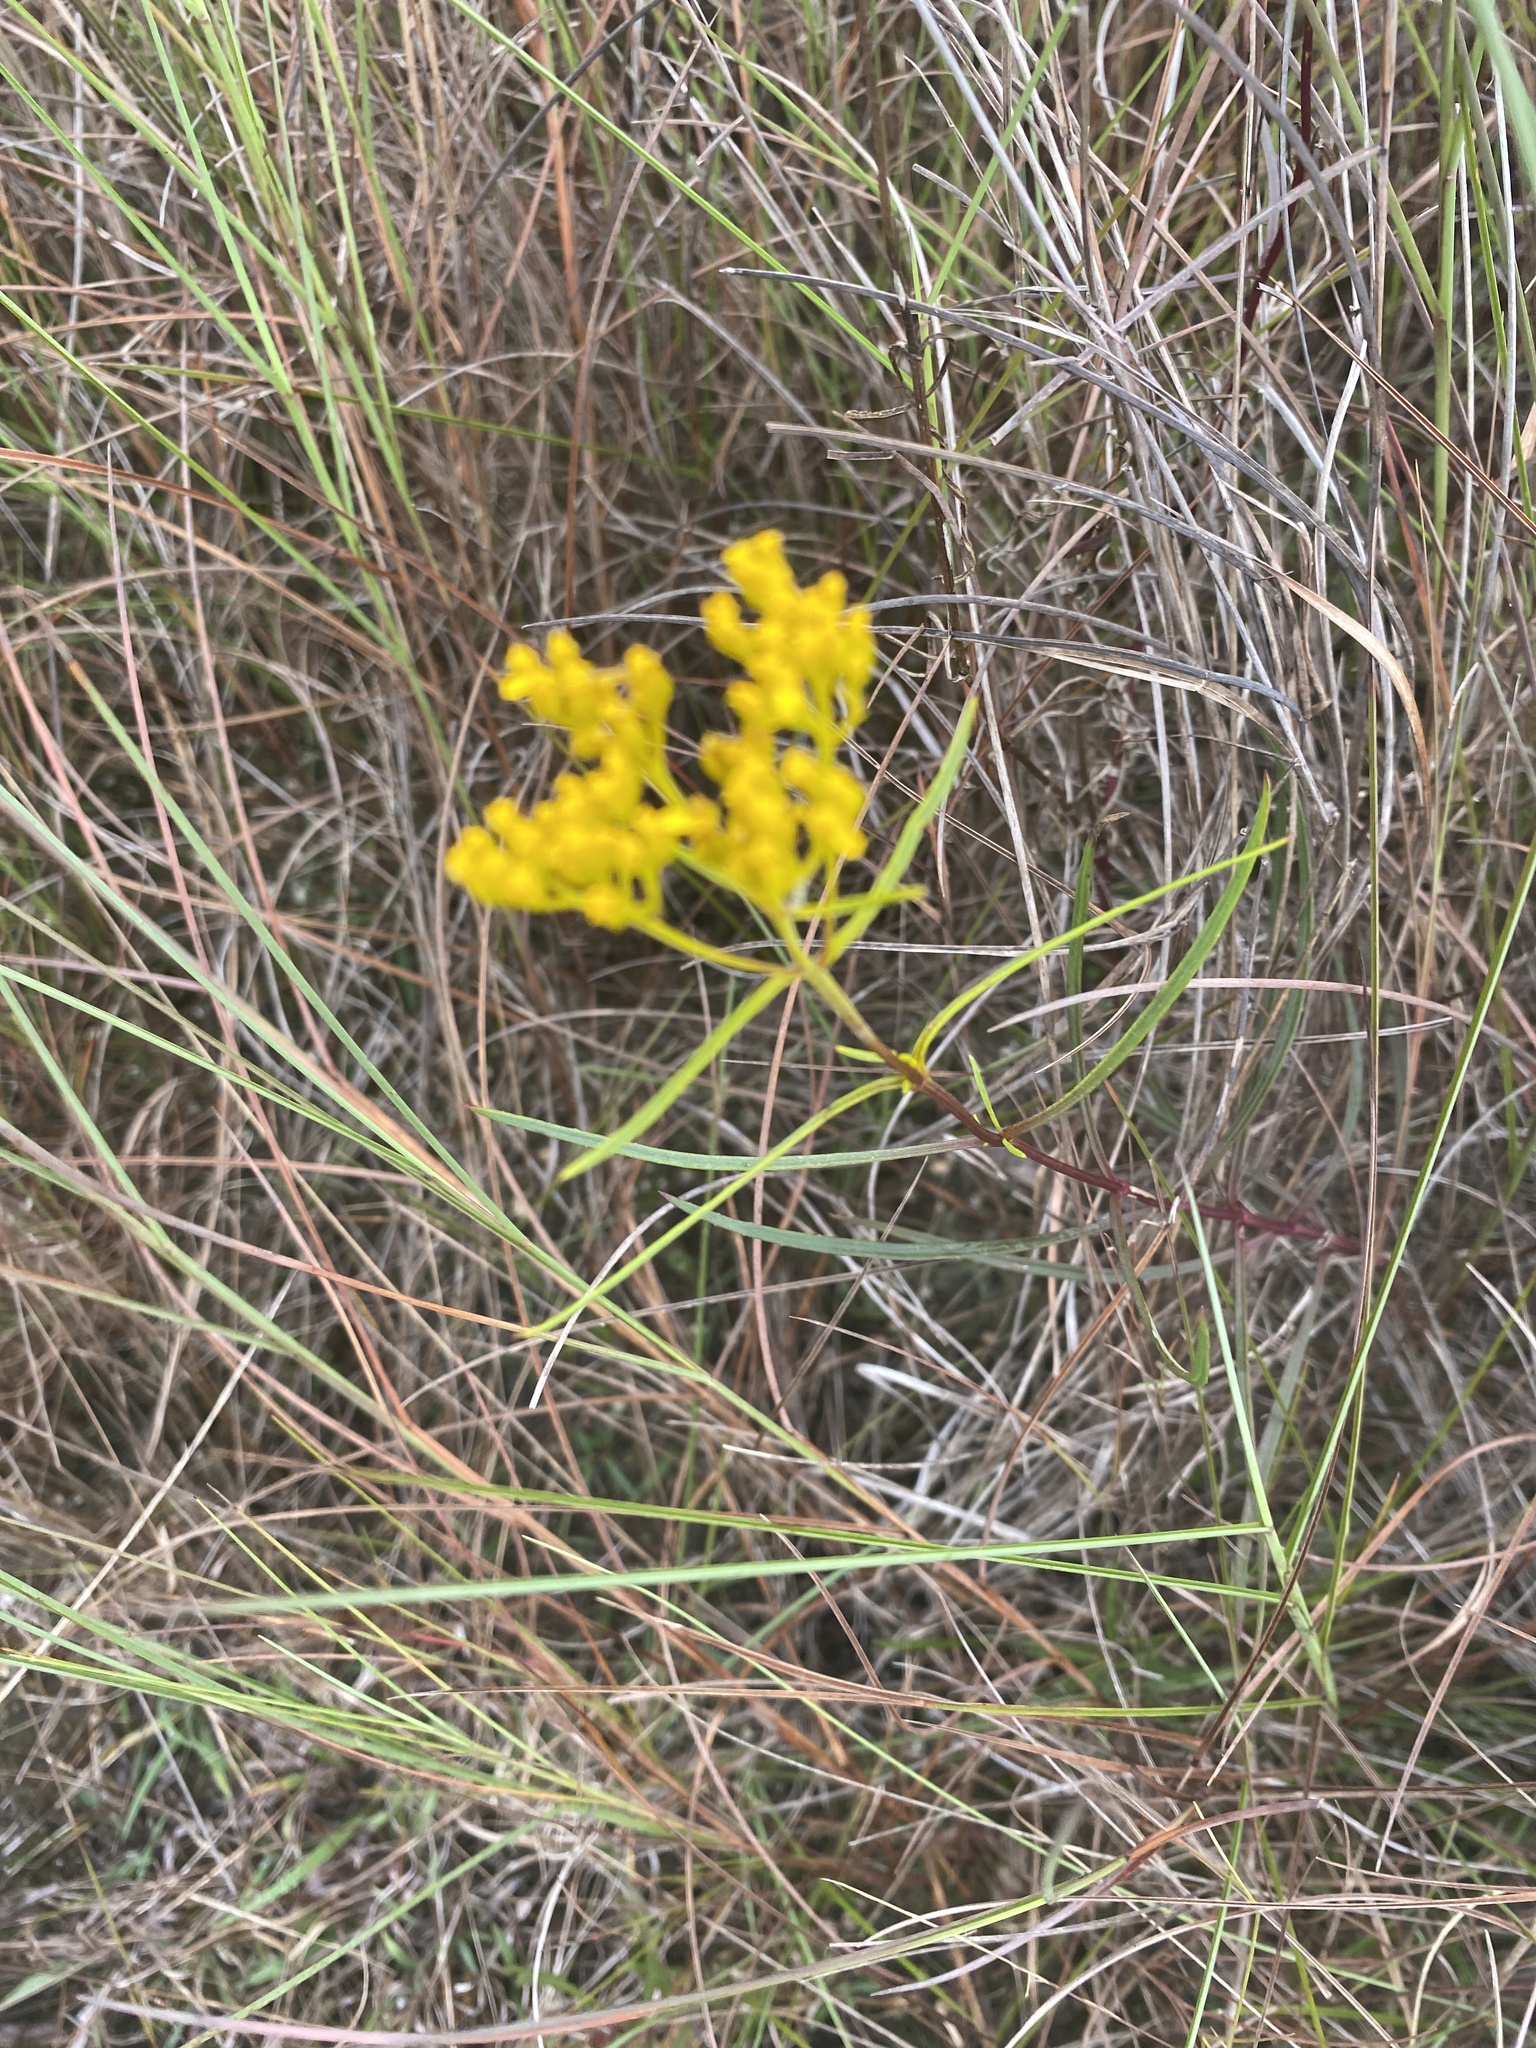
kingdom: Plantae
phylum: Tracheophyta
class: Magnoliopsida
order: Asterales
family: Asteraceae
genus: Flaveria
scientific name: Flaveria linearis
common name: Yellowtop
